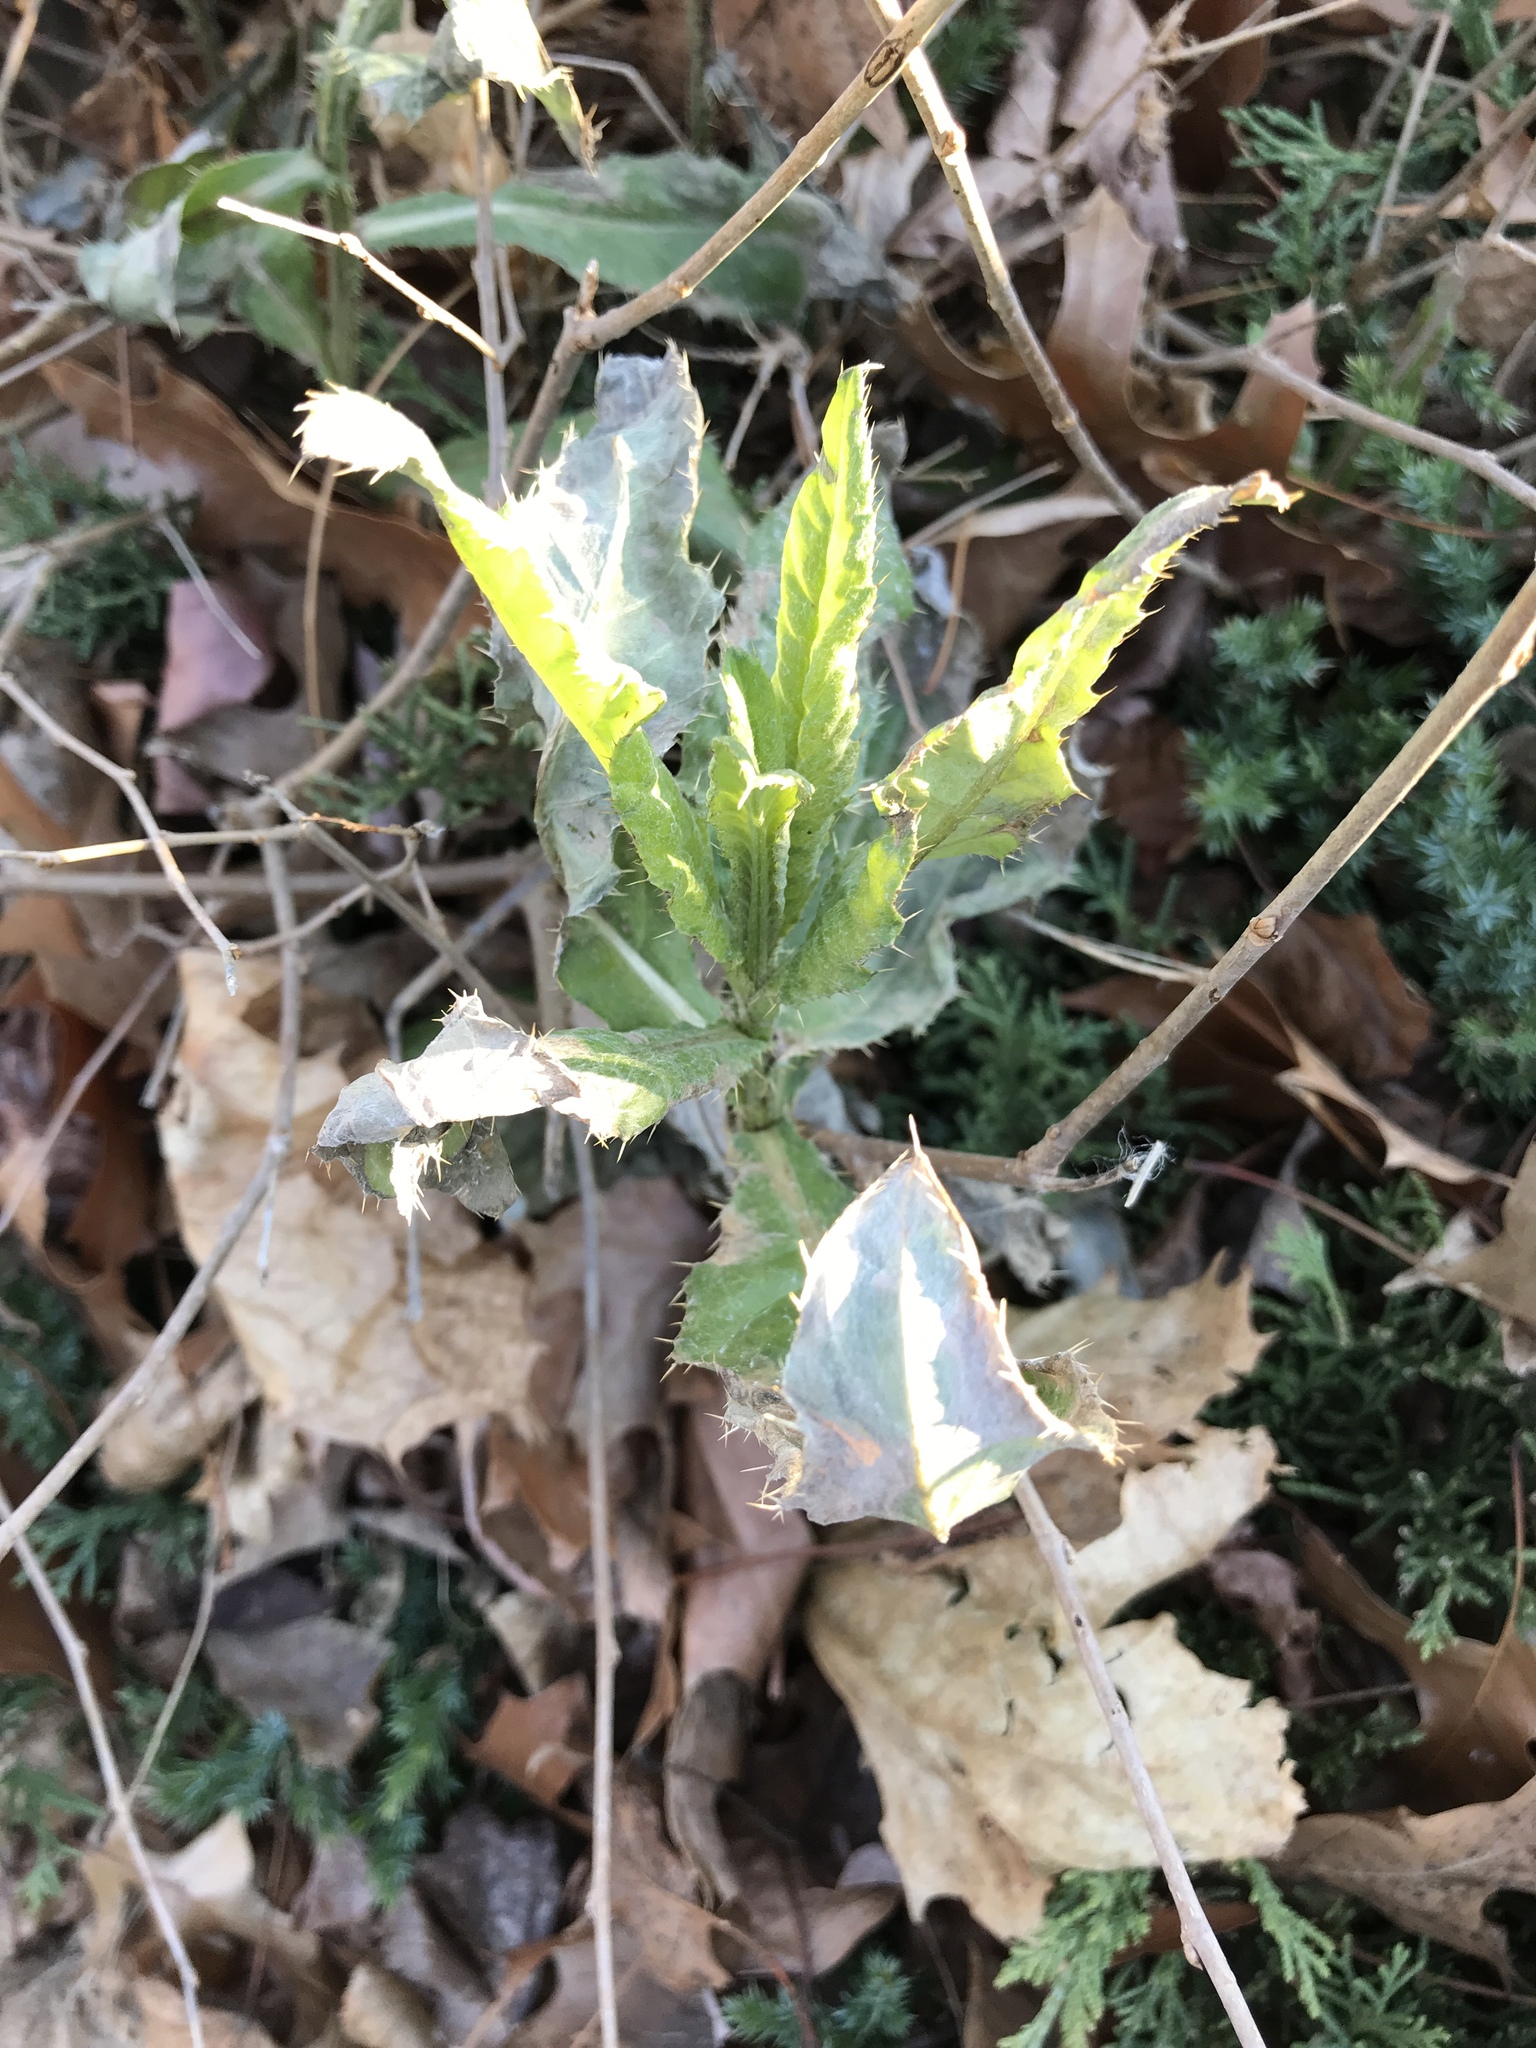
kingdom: Plantae
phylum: Tracheophyta
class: Magnoliopsida
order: Asterales
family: Asteraceae
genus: Cirsium
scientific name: Cirsium arvense
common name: Creeping thistle
